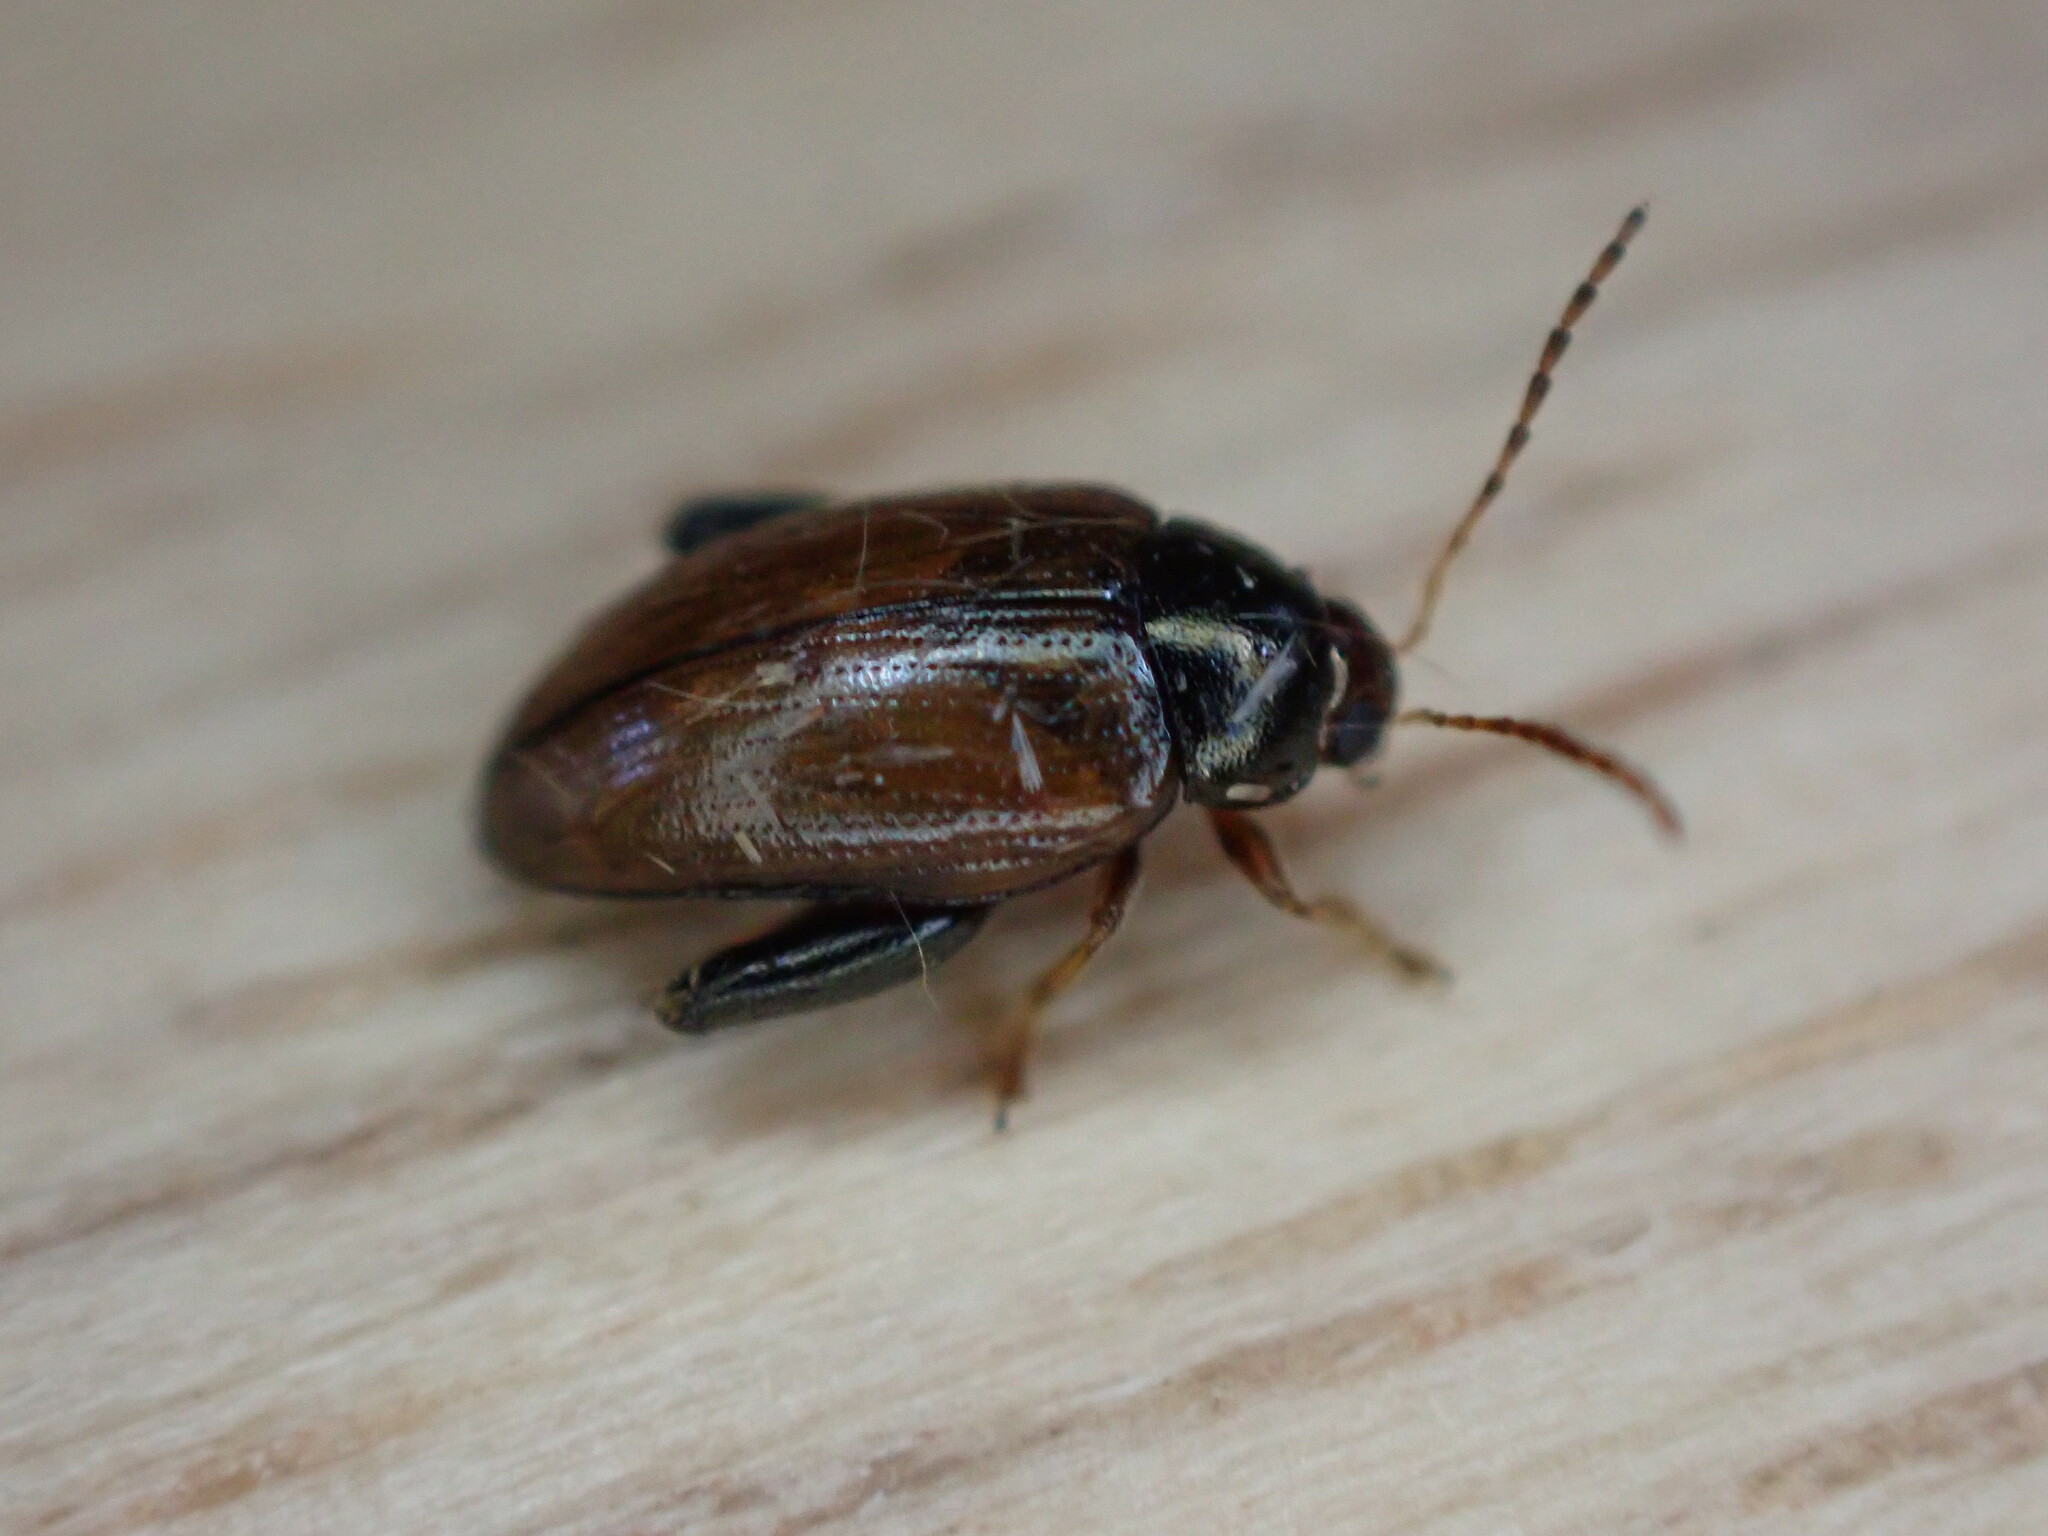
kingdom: Animalia
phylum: Arthropoda
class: Insecta
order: Coleoptera
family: Chrysomelidae
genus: Psylliodes
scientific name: Psylliodes chrysocephalus
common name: Cabbage-stem flea beetle
